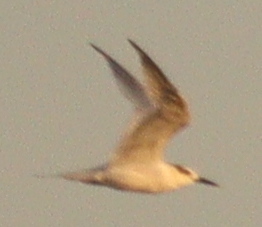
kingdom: Animalia
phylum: Chordata
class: Aves
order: Charadriiformes
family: Laridae
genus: Thalasseus
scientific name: Thalasseus sandvicensis
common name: Sandwich tern
